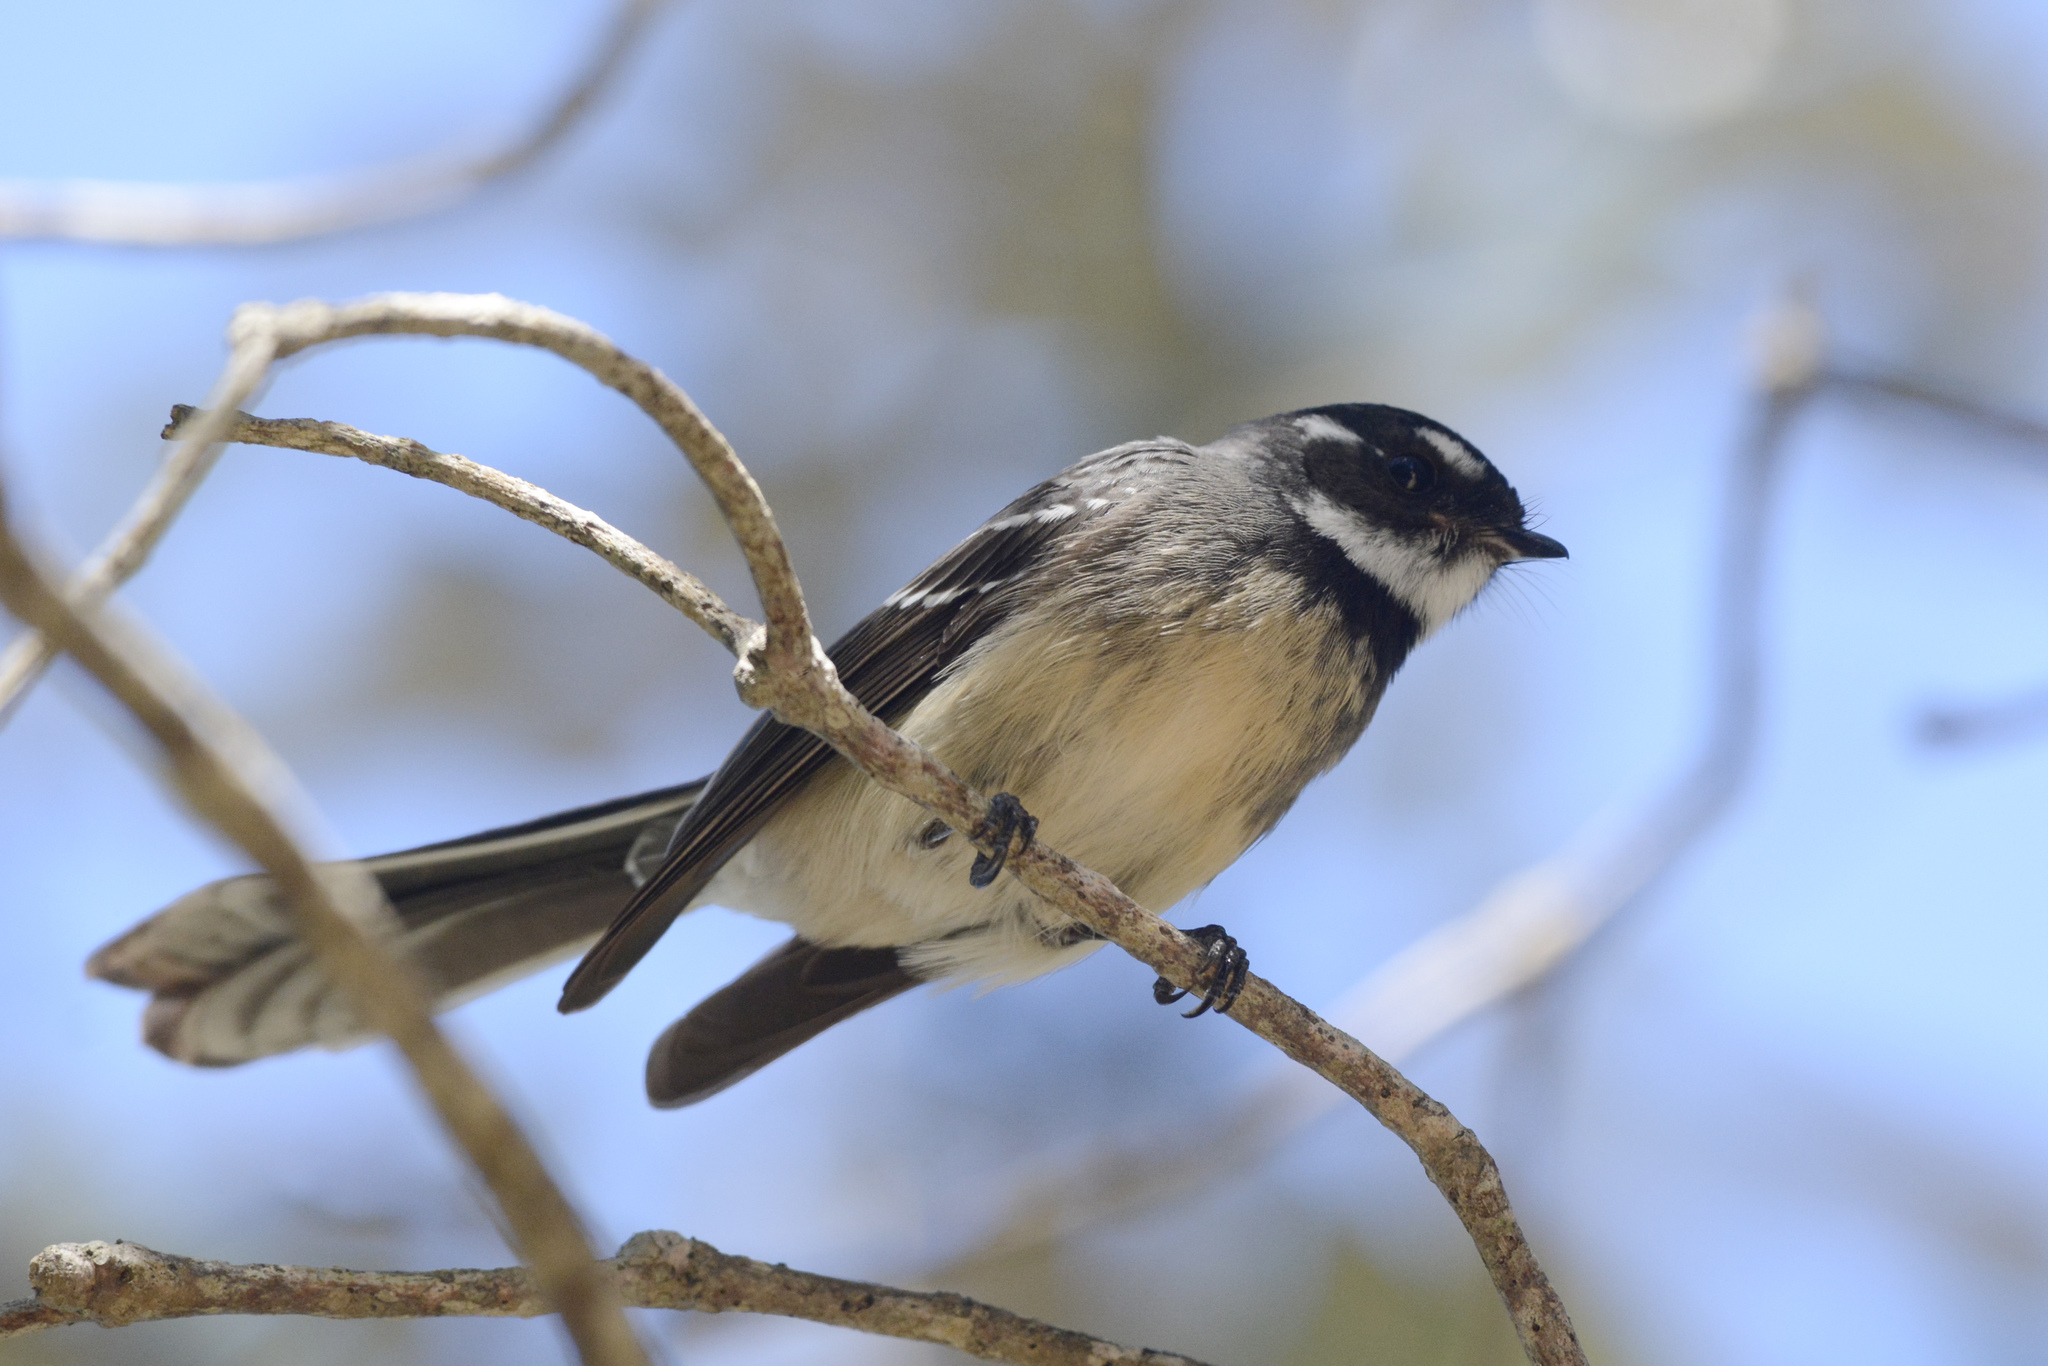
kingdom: Animalia
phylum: Chordata
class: Aves
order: Passeriformes
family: Rhipiduridae
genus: Rhipidura
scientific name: Rhipidura albiscapa
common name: Grey fantail
